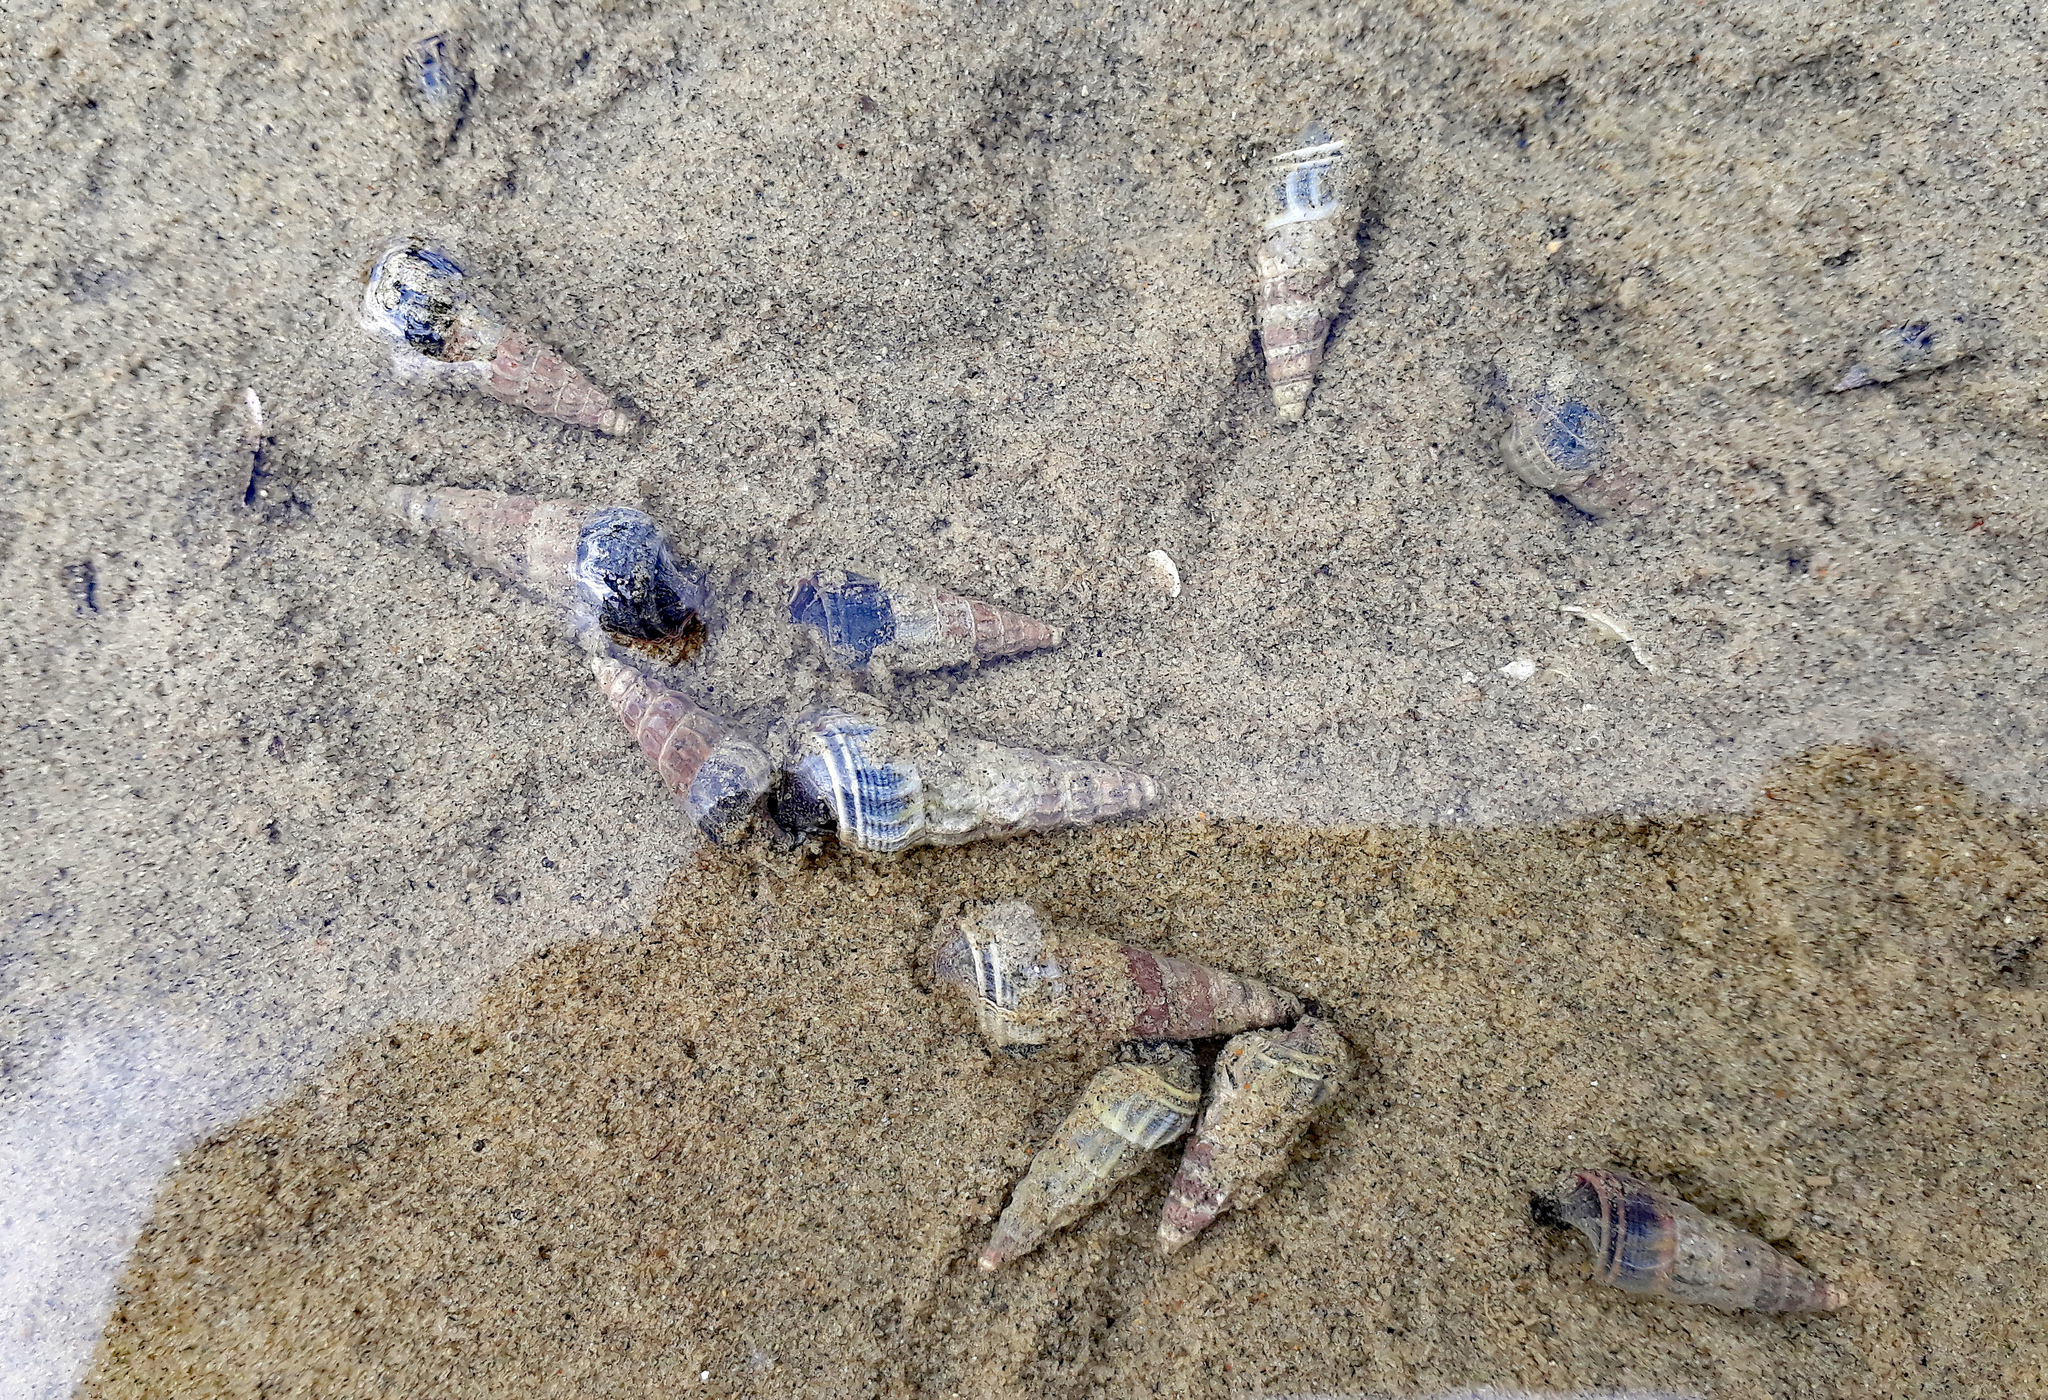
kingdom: Animalia
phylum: Mollusca
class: Gastropoda
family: Batillariidae
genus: Zeacumantus
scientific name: Zeacumantus lutulentus
